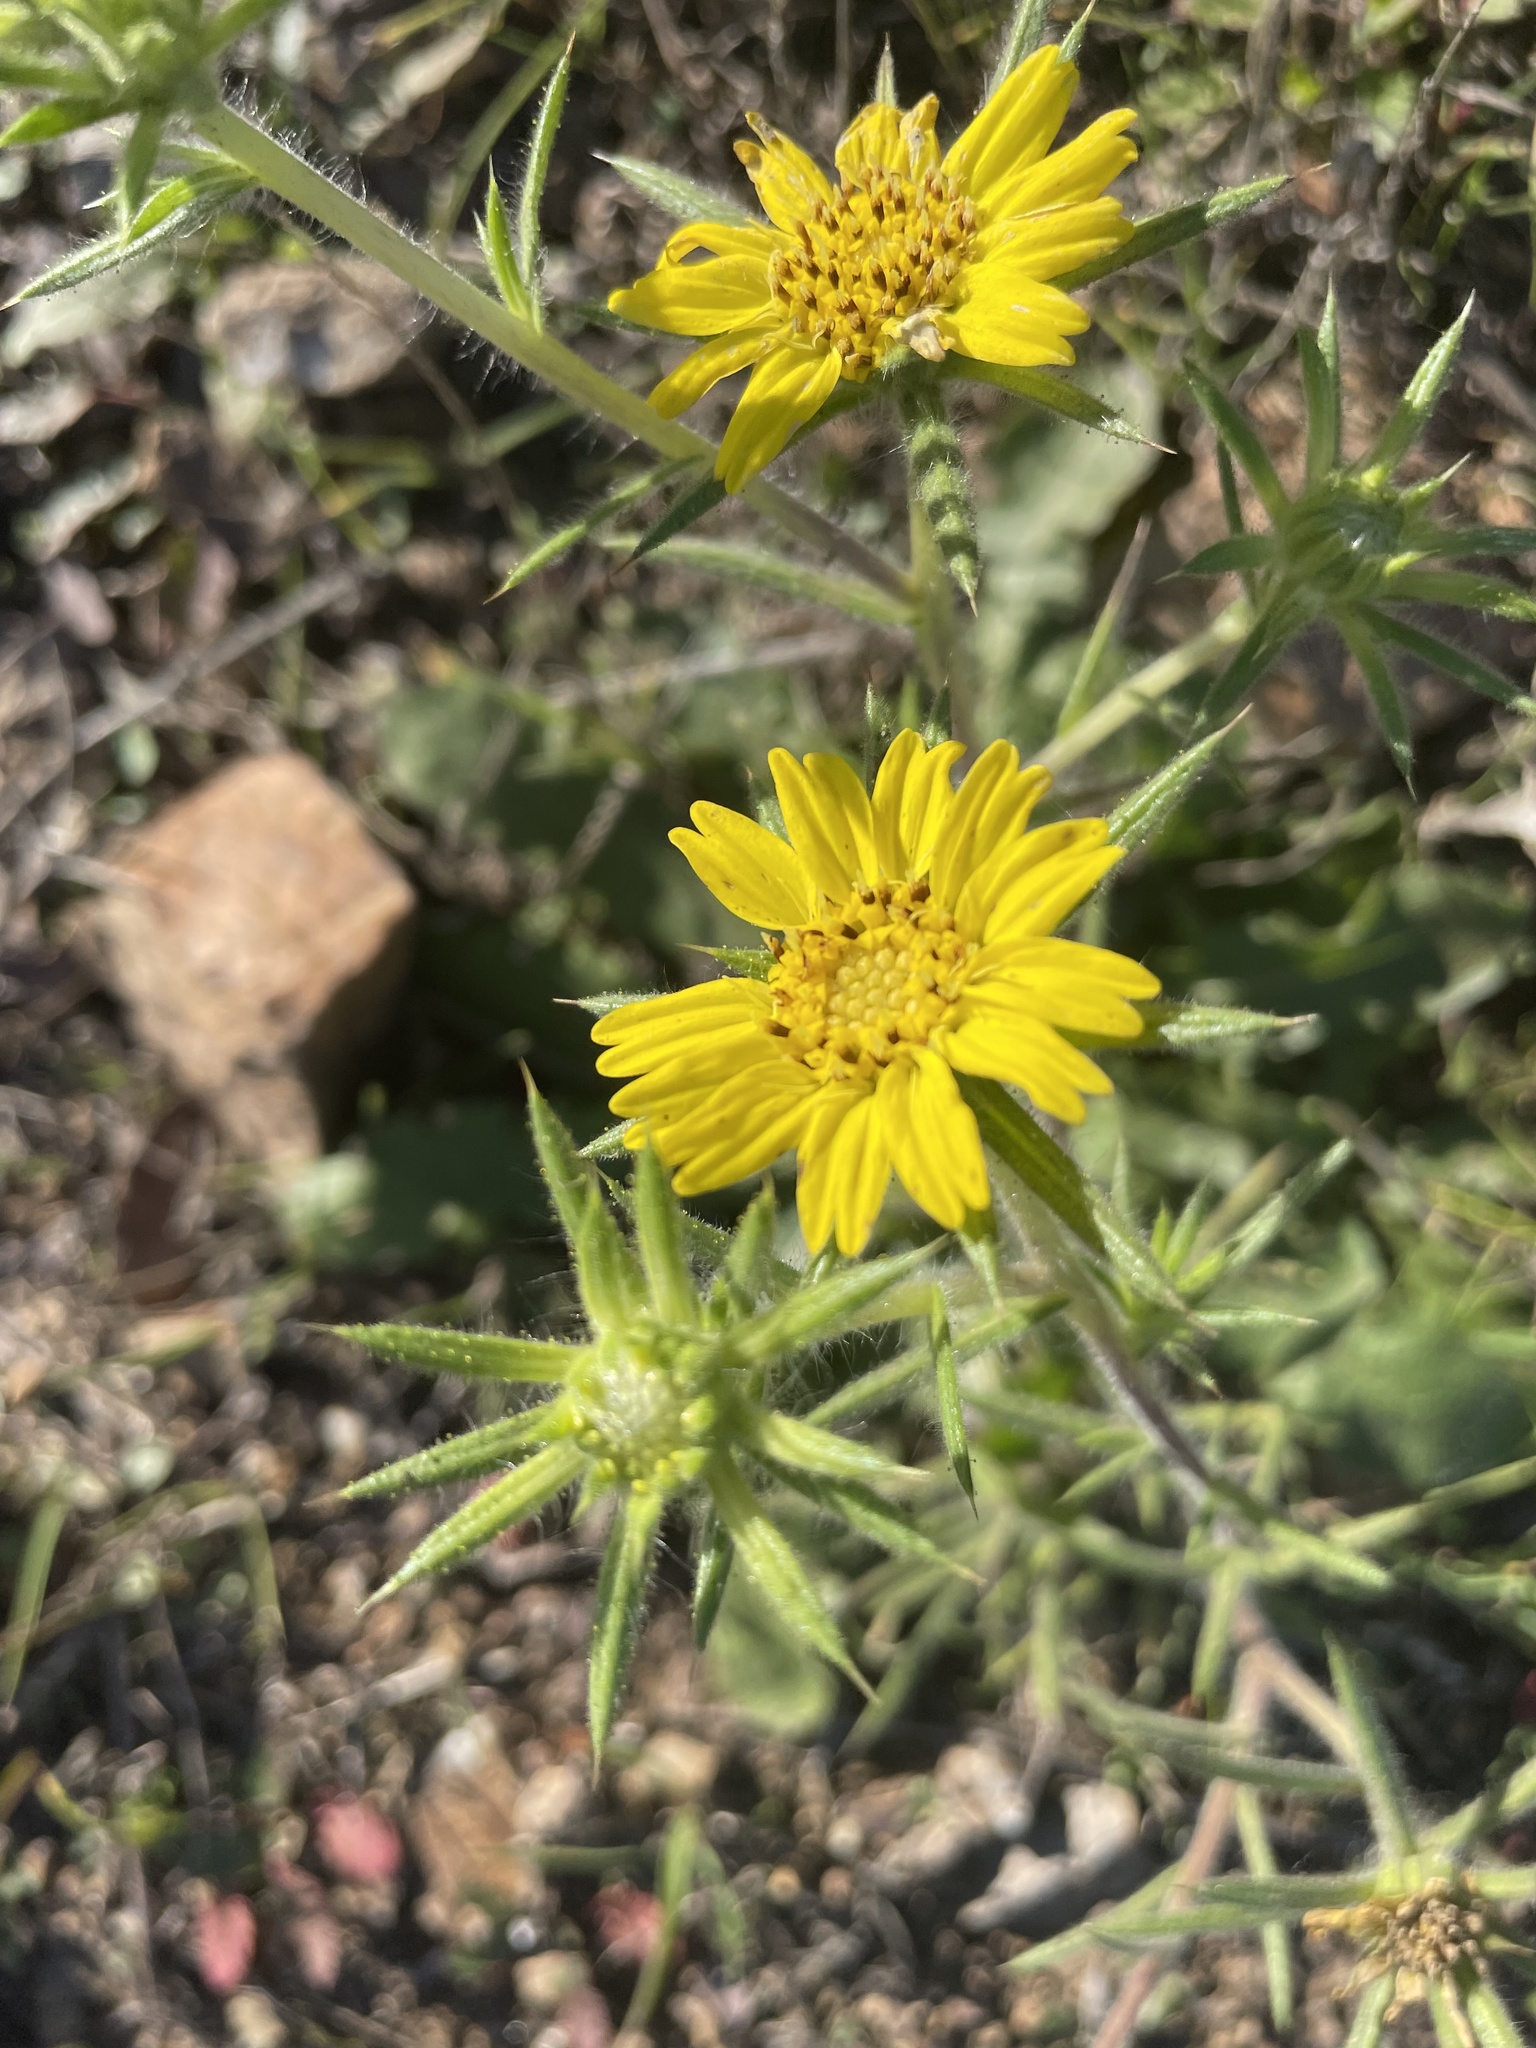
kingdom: Plantae
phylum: Tracheophyta
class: Magnoliopsida
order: Asterales
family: Asteraceae
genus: Centromadia
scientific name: Centromadia fitchii
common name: Fitch's spikeweed
